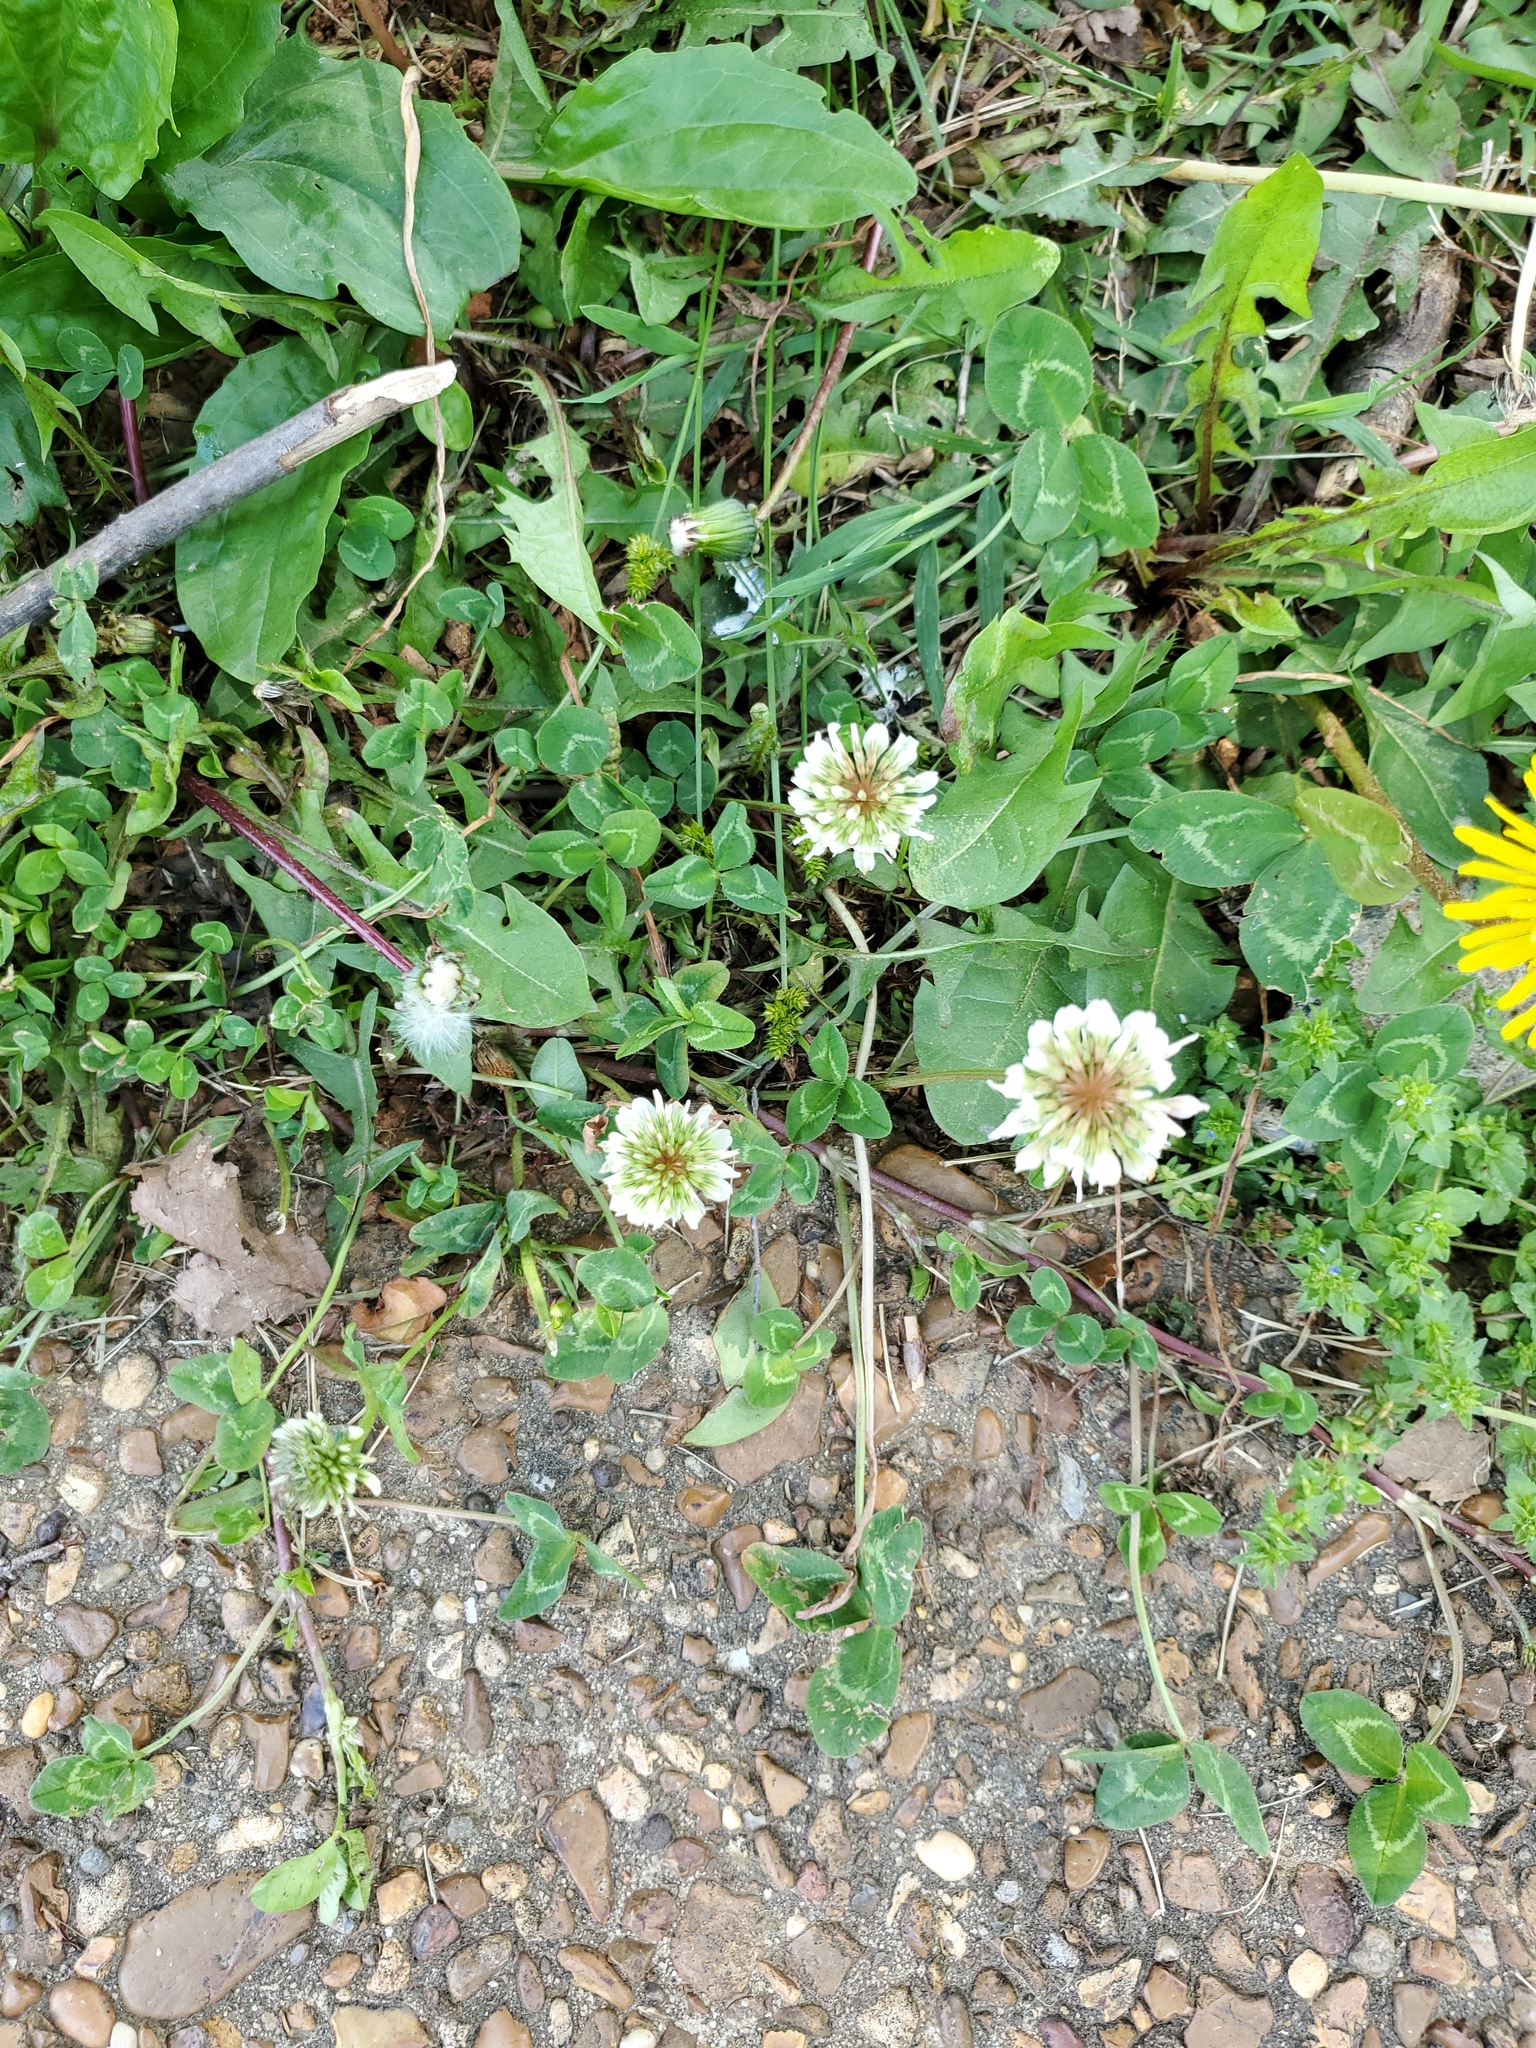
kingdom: Plantae
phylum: Tracheophyta
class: Magnoliopsida
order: Fabales
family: Fabaceae
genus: Trifolium
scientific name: Trifolium repens
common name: White clover
